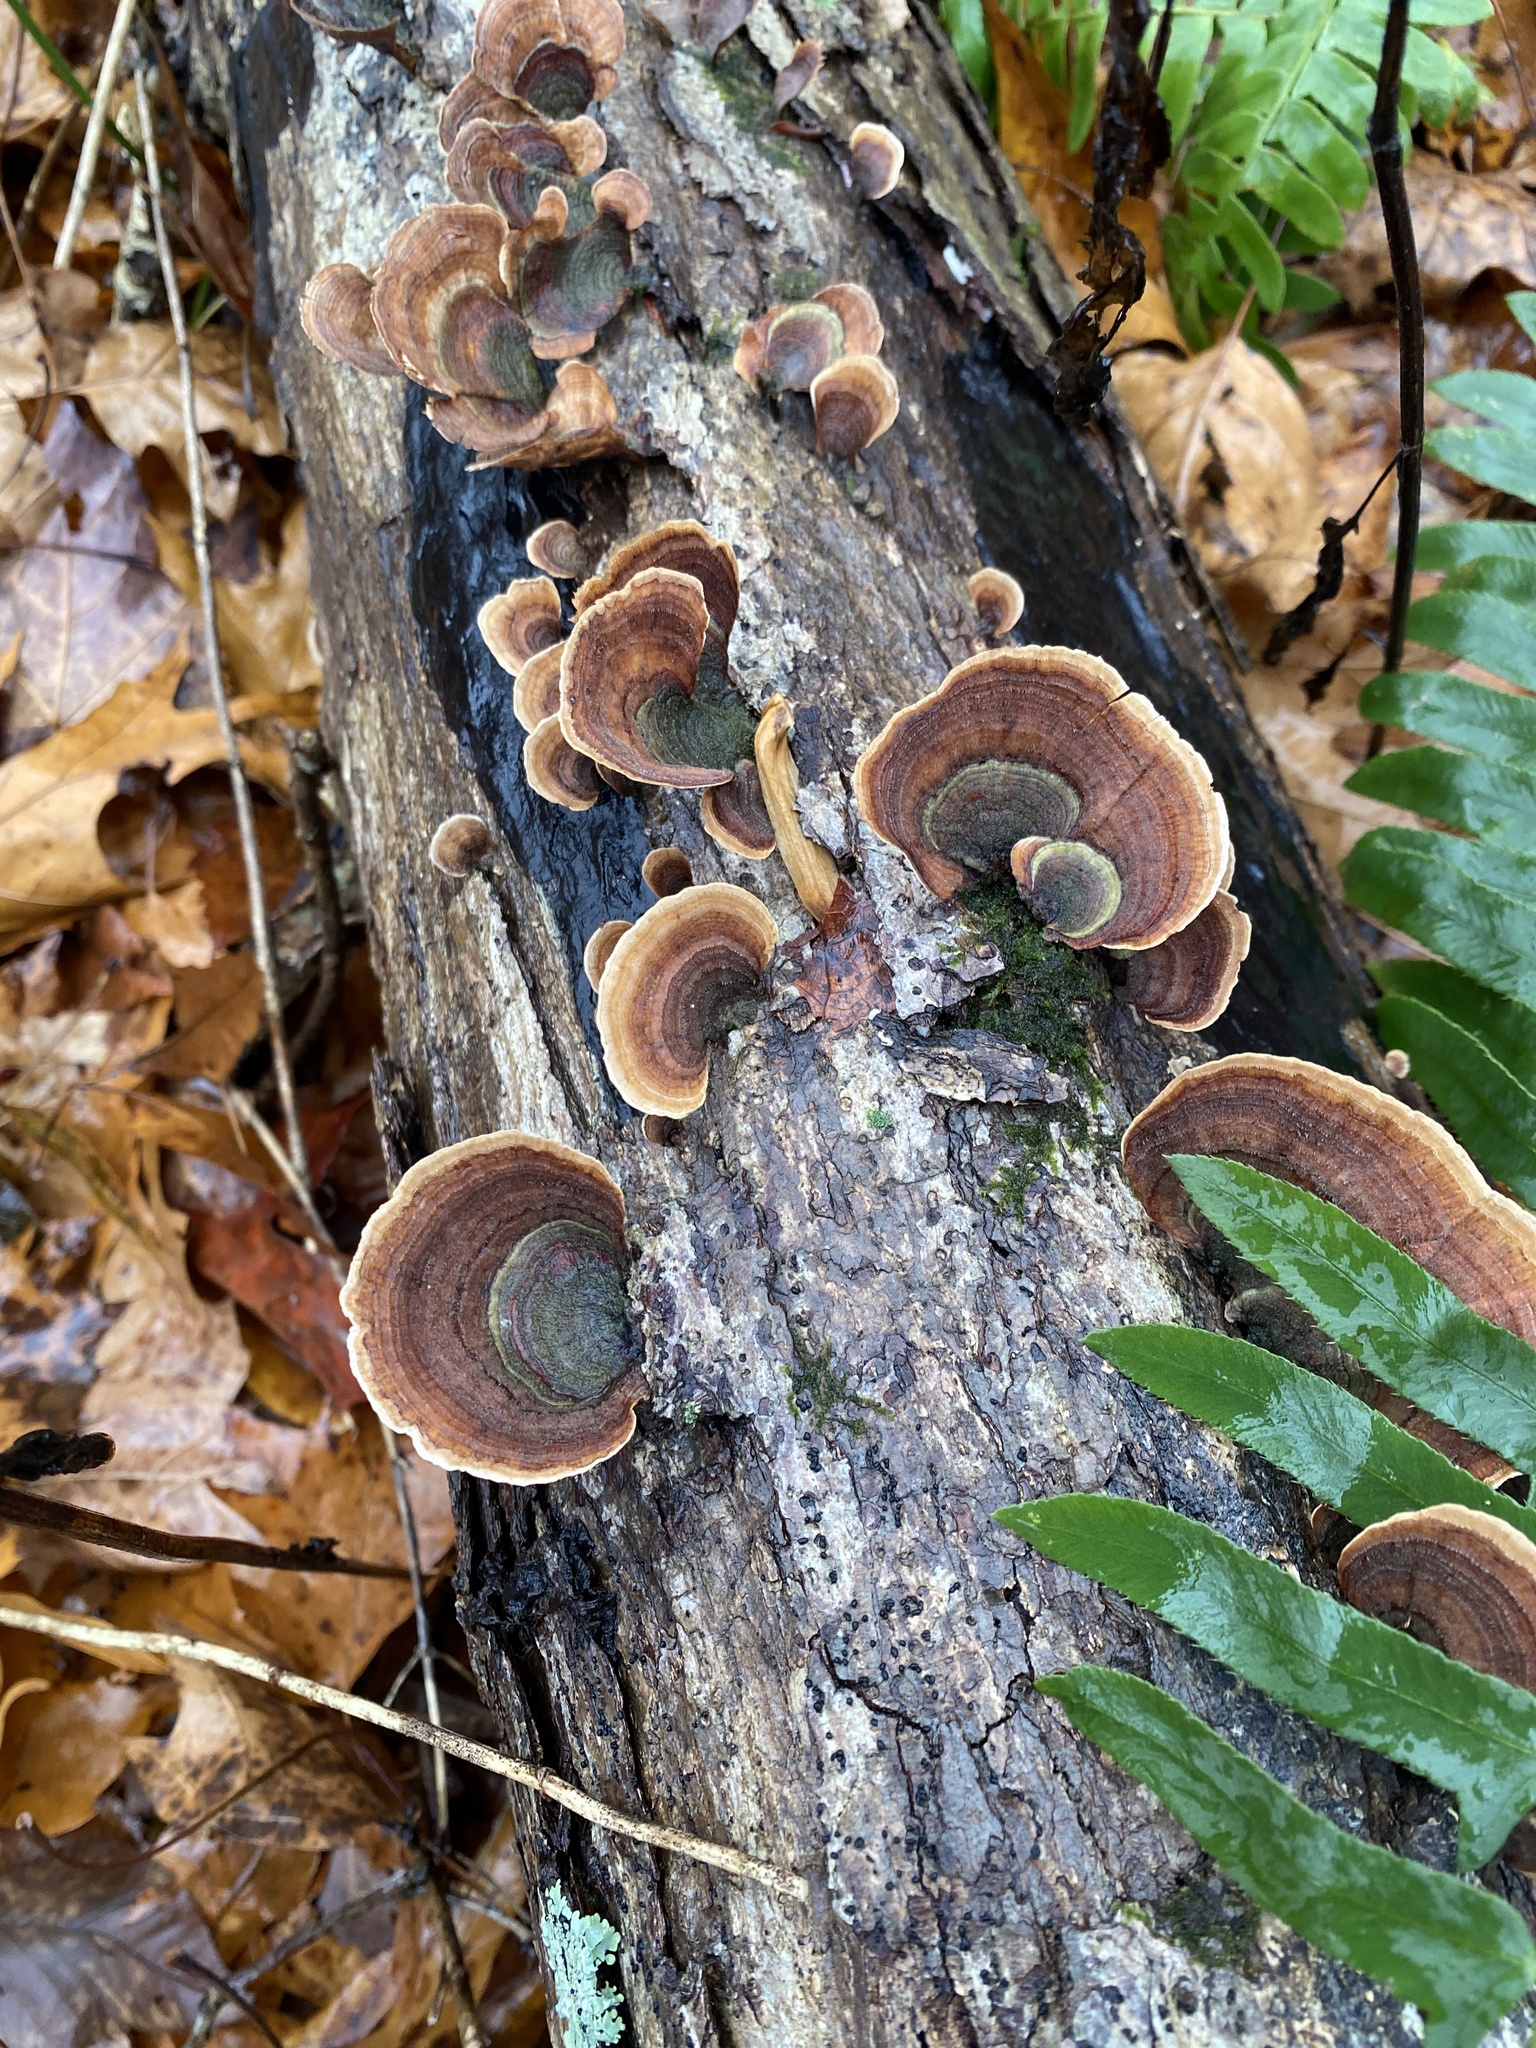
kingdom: Fungi
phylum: Basidiomycota
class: Agaricomycetes
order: Russulales
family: Stereaceae
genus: Stereum
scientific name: Stereum ostrea
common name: False turkeytail
